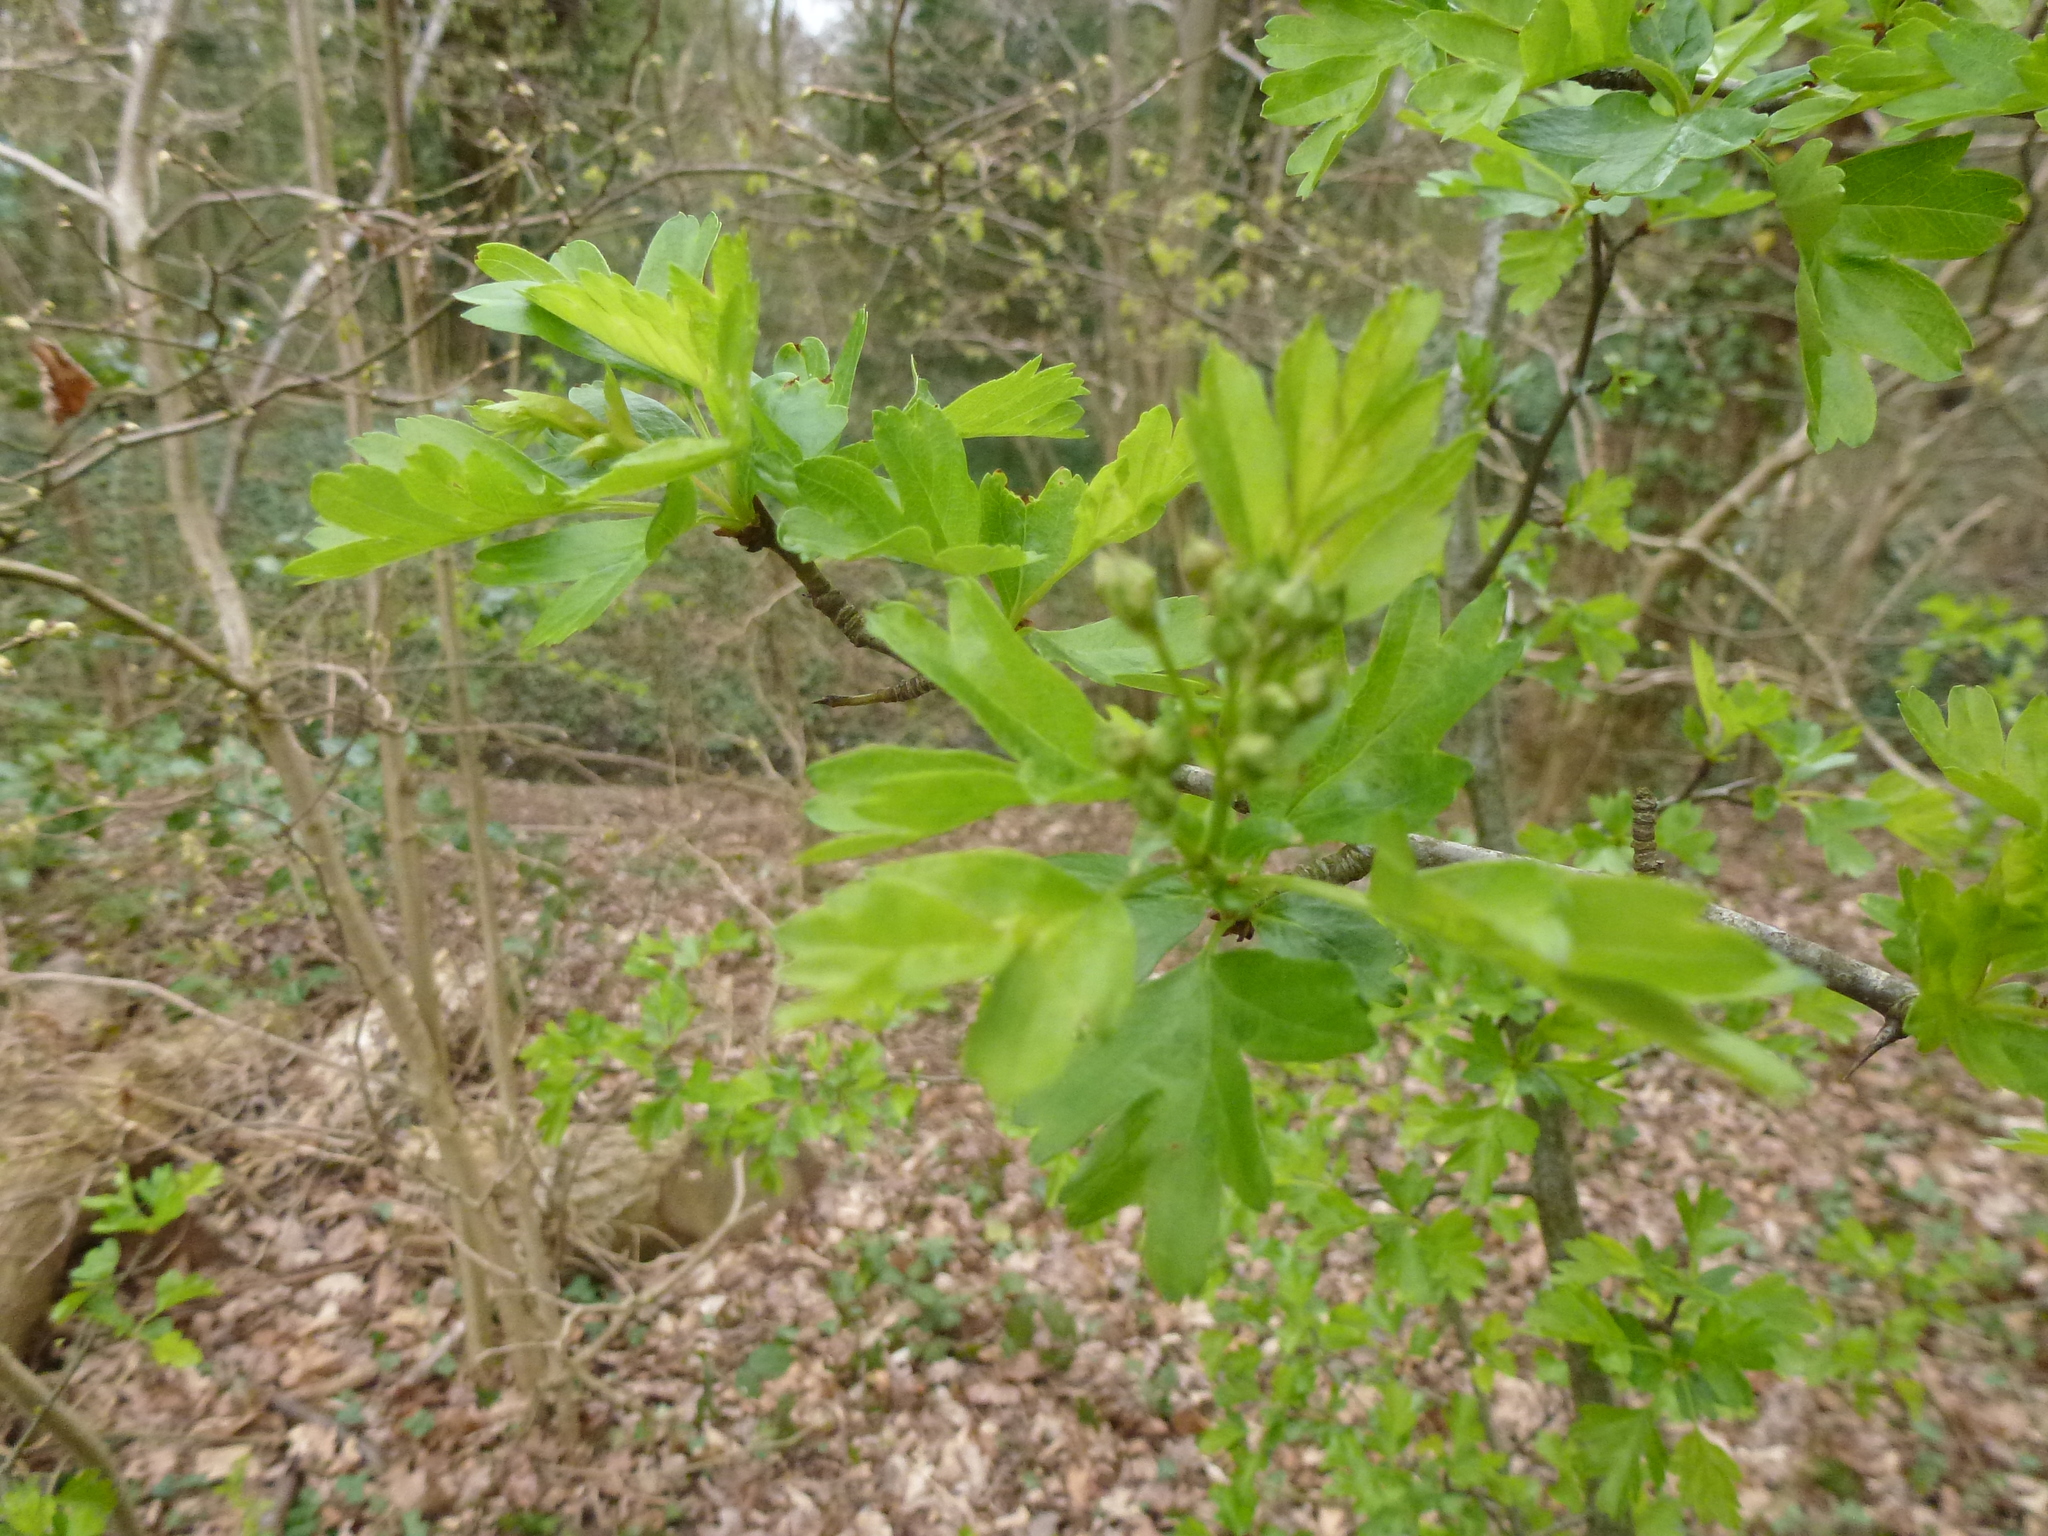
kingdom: Plantae
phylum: Tracheophyta
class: Magnoliopsida
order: Rosales
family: Rosaceae
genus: Crataegus
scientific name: Crataegus monogyna
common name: Hawthorn
